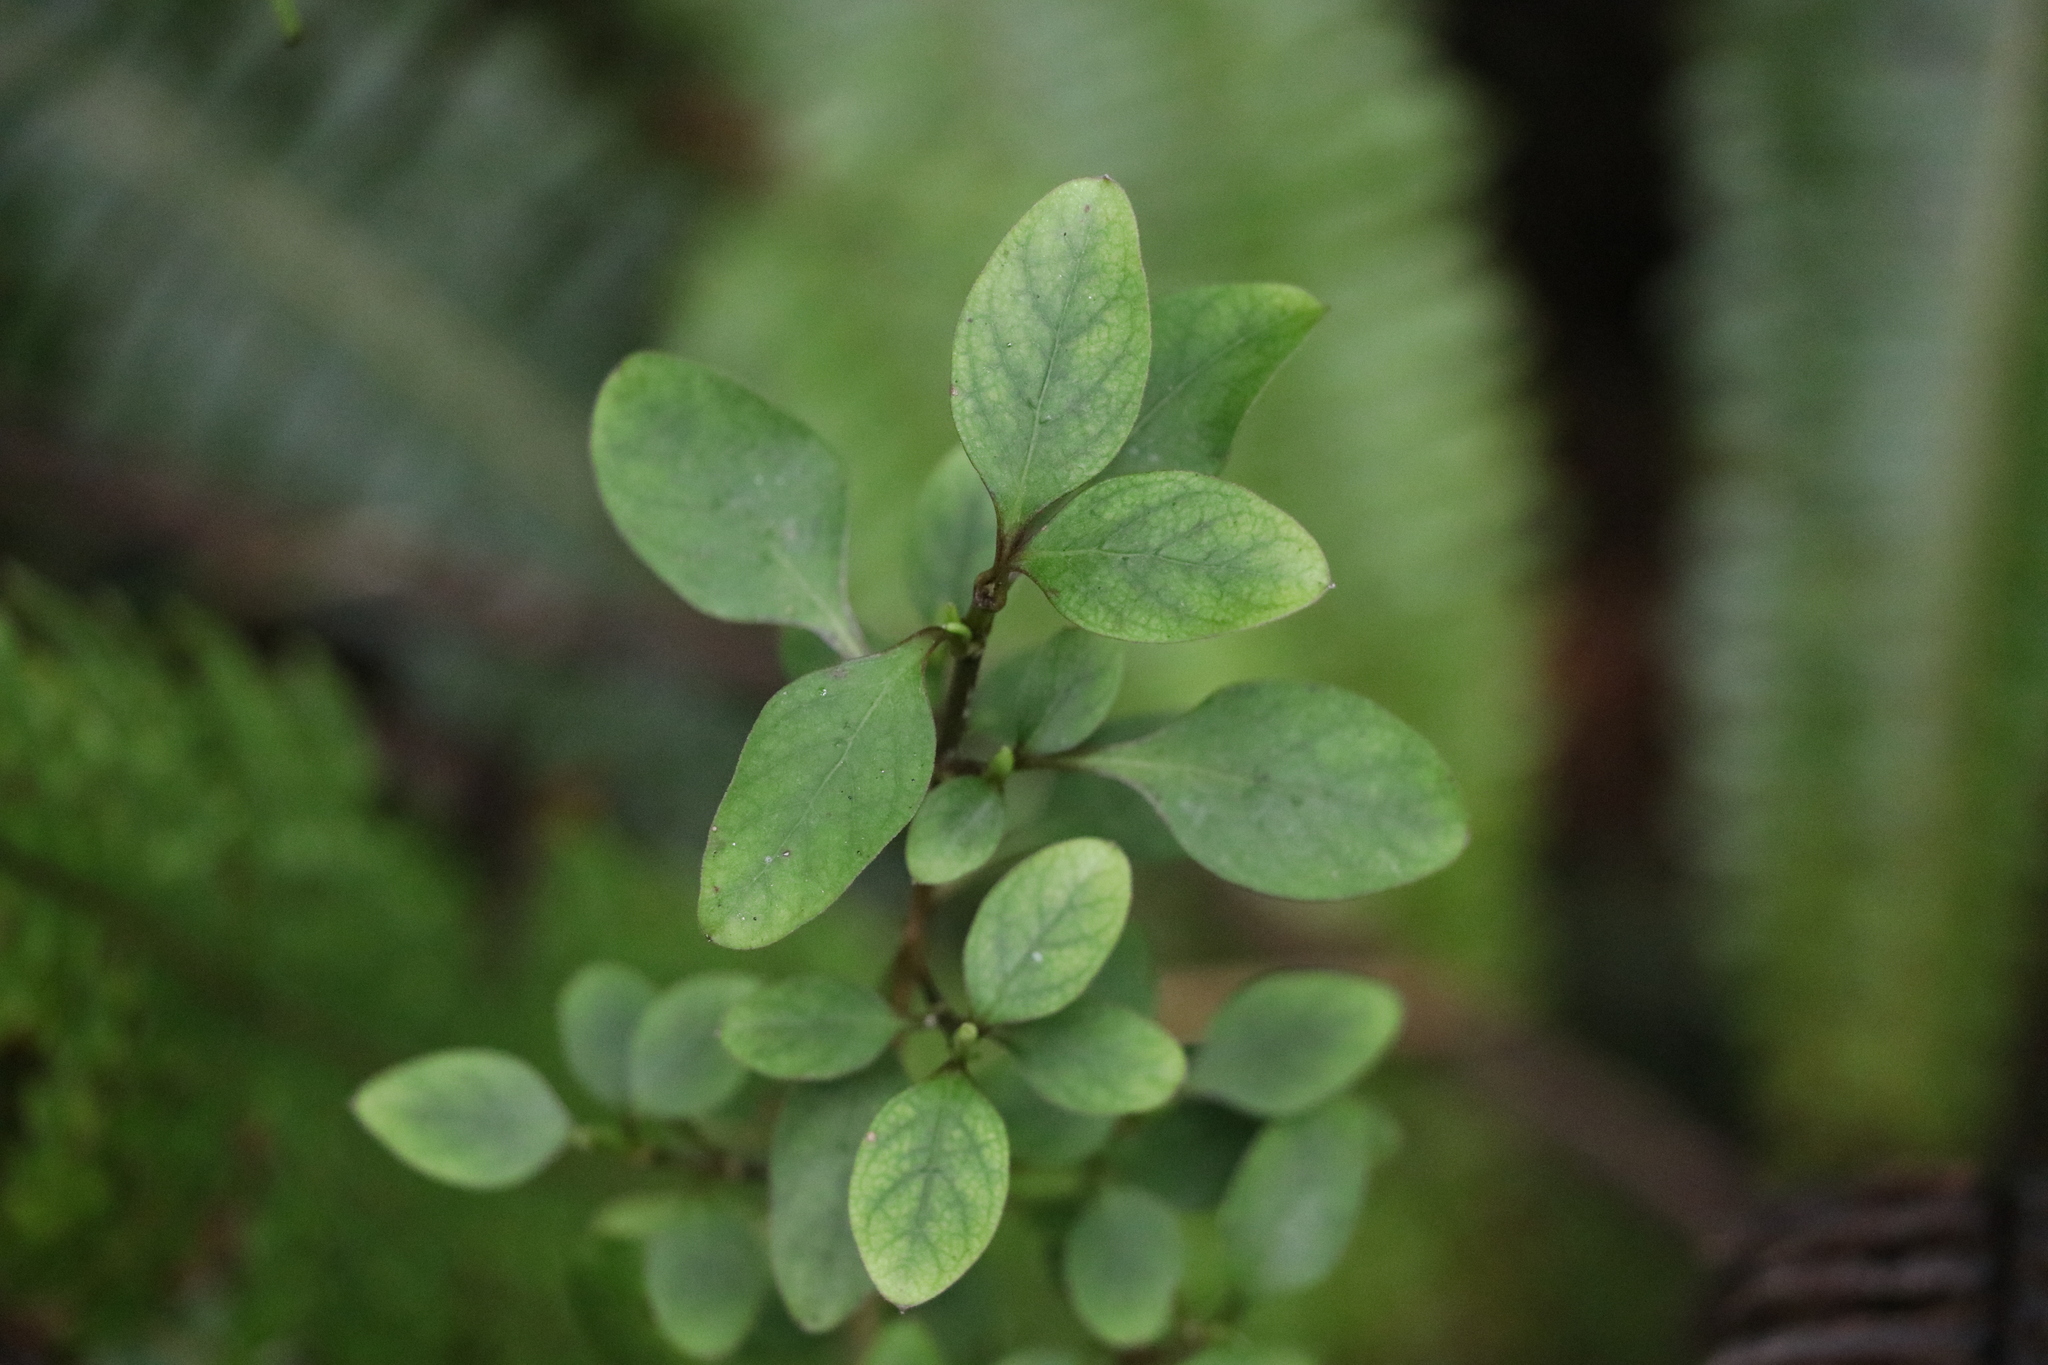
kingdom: Plantae
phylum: Tracheophyta
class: Magnoliopsida
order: Gentianales
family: Rubiaceae
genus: Coprosma
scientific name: Coprosma foetidissima
